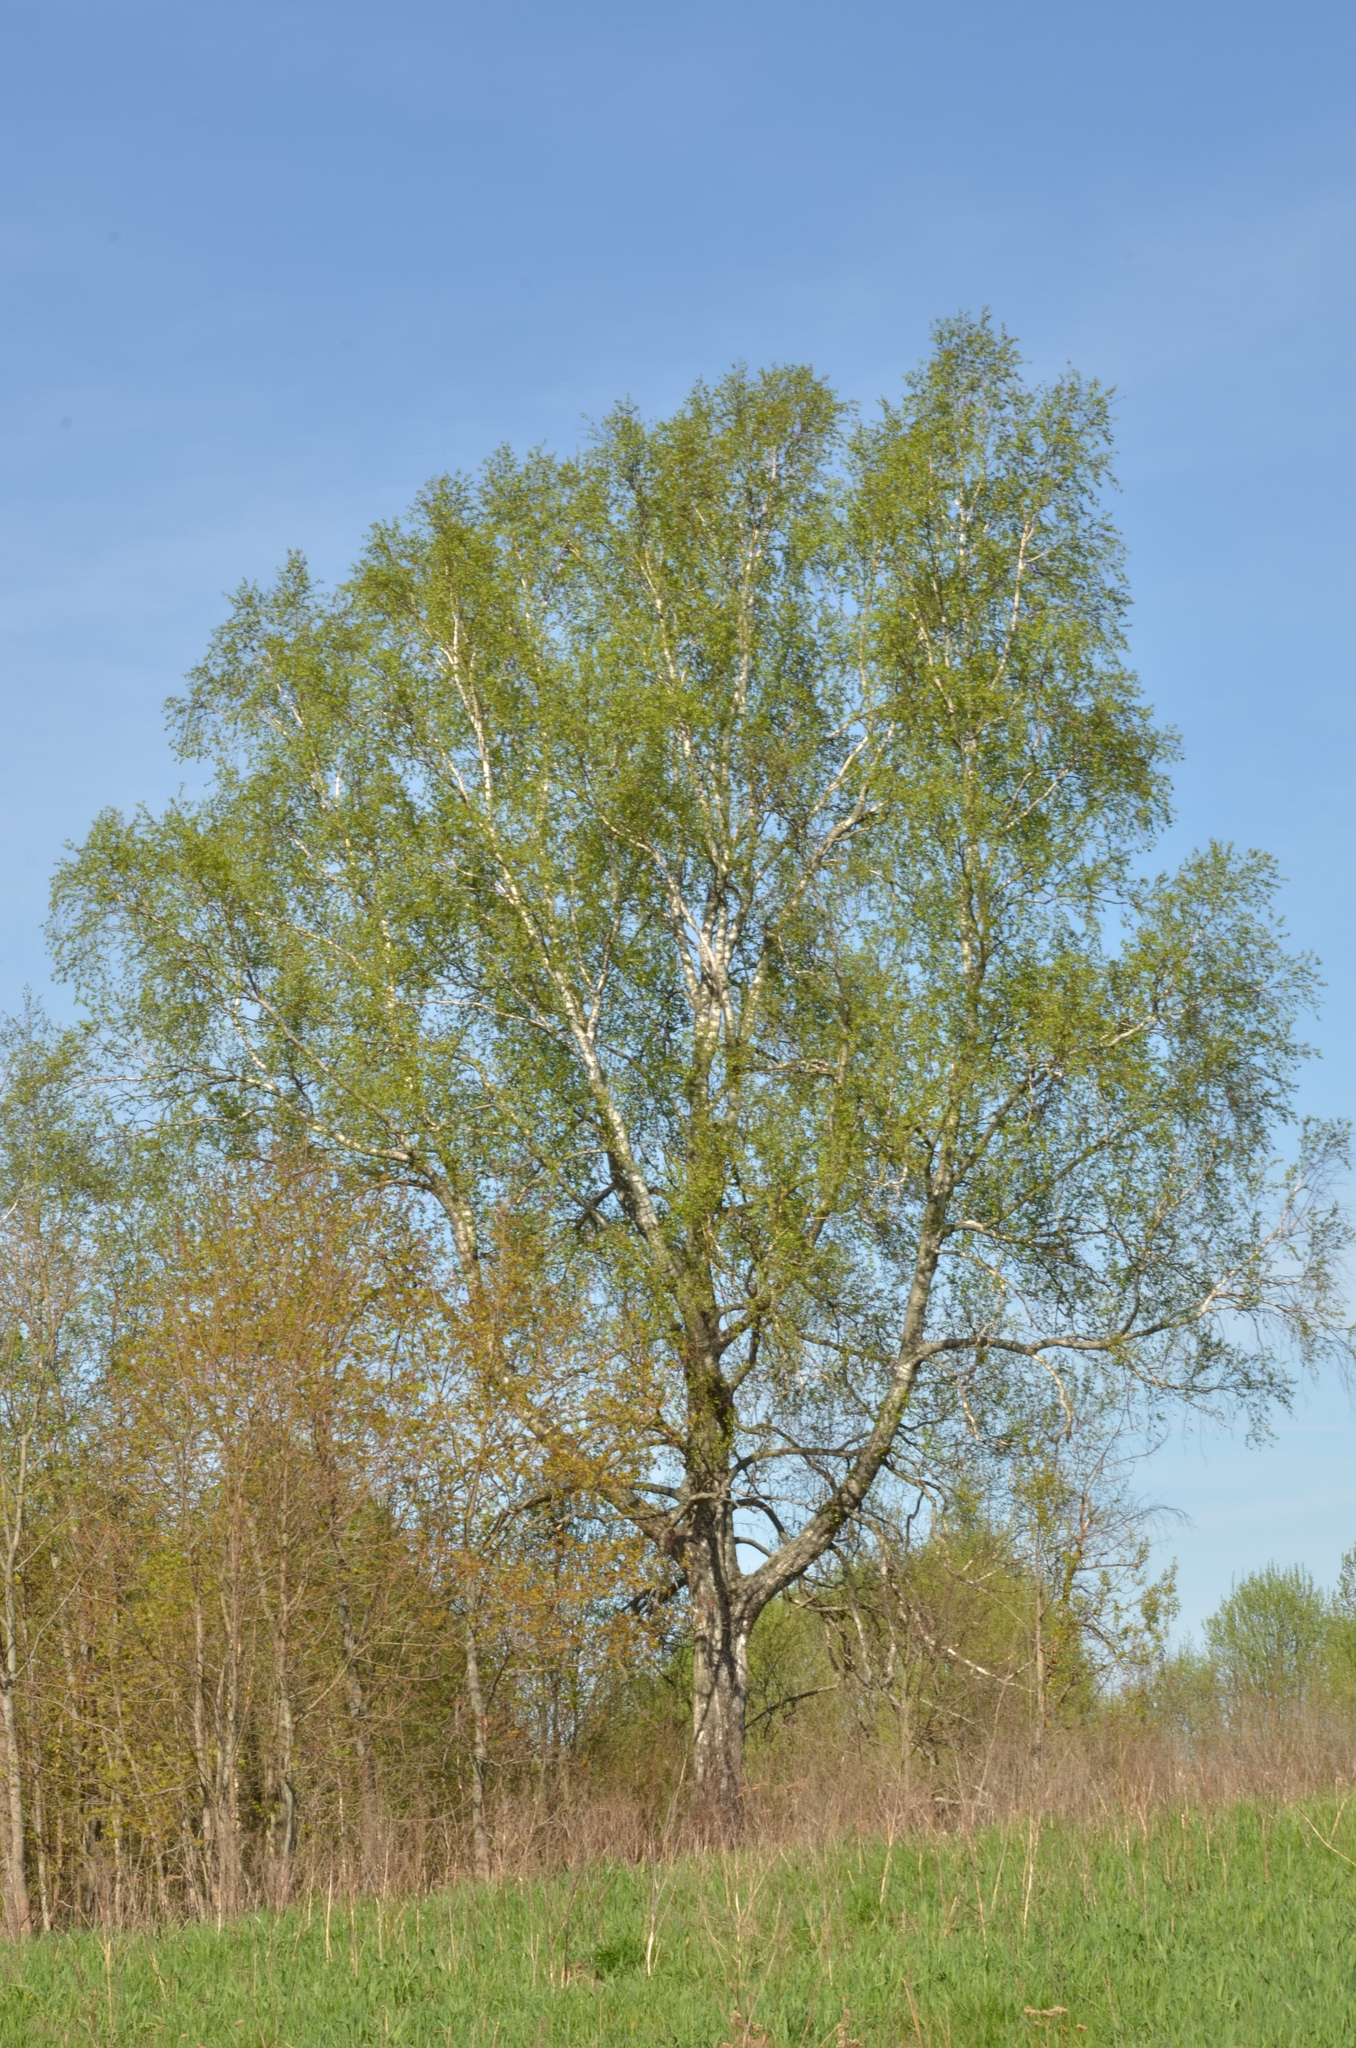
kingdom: Plantae
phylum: Tracheophyta
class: Magnoliopsida
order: Fagales
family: Betulaceae
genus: Betula
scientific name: Betula pendula
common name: Silver birch
